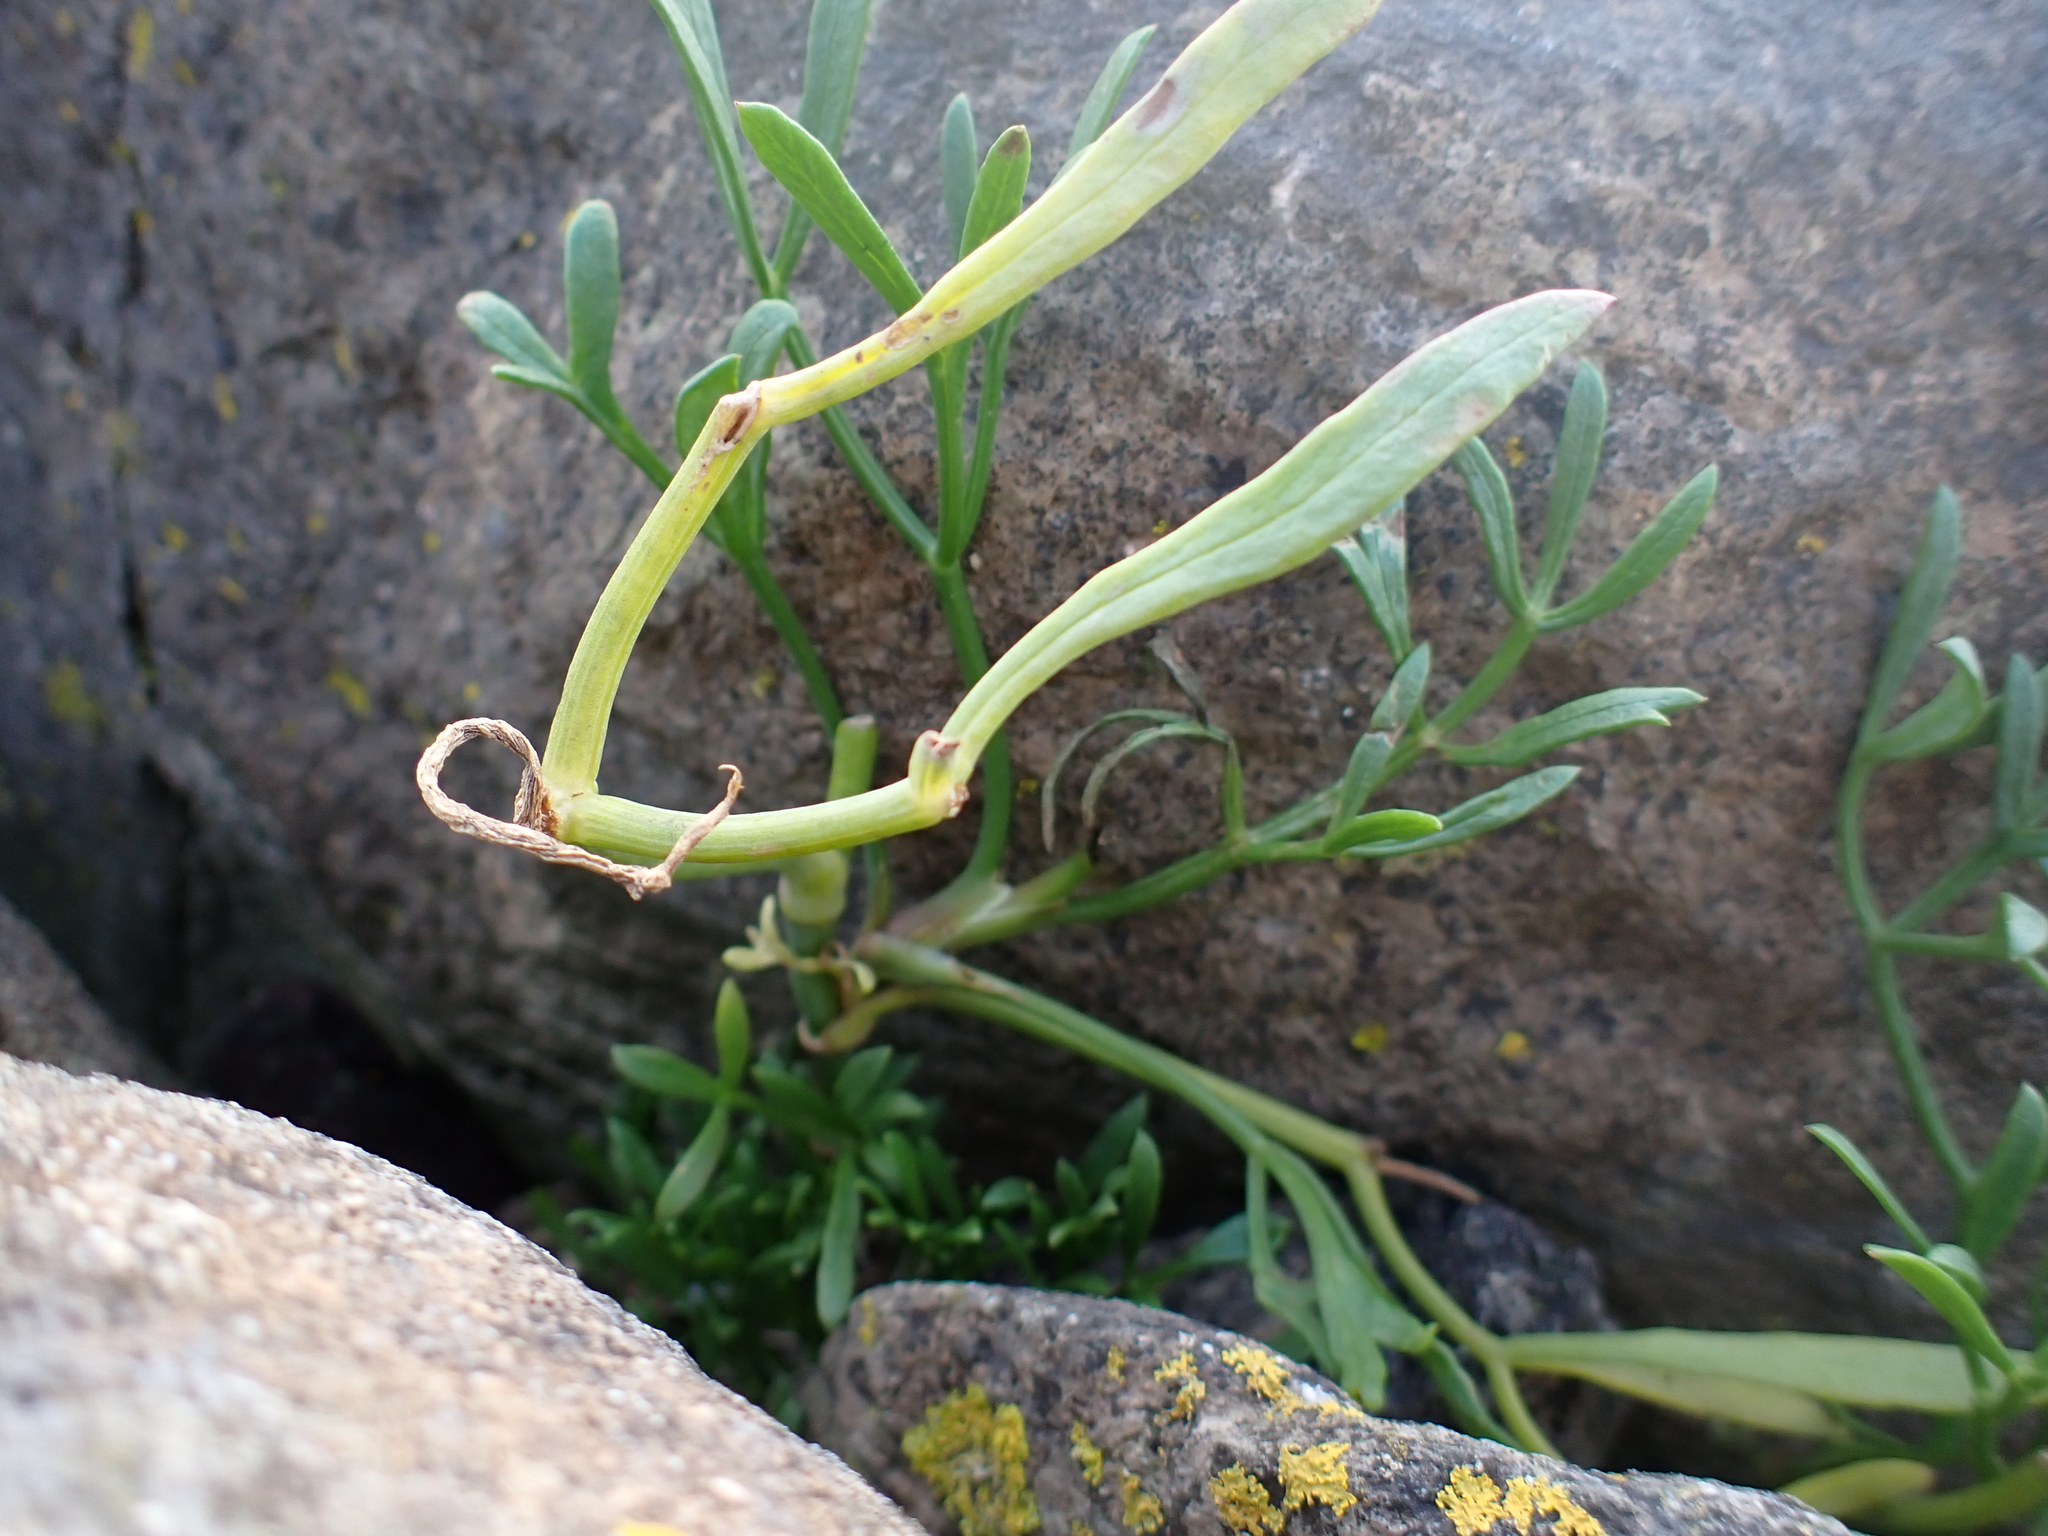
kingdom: Plantae
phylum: Tracheophyta
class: Magnoliopsida
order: Apiales
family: Apiaceae
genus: Crithmum
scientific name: Crithmum maritimum
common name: Rock samphire
